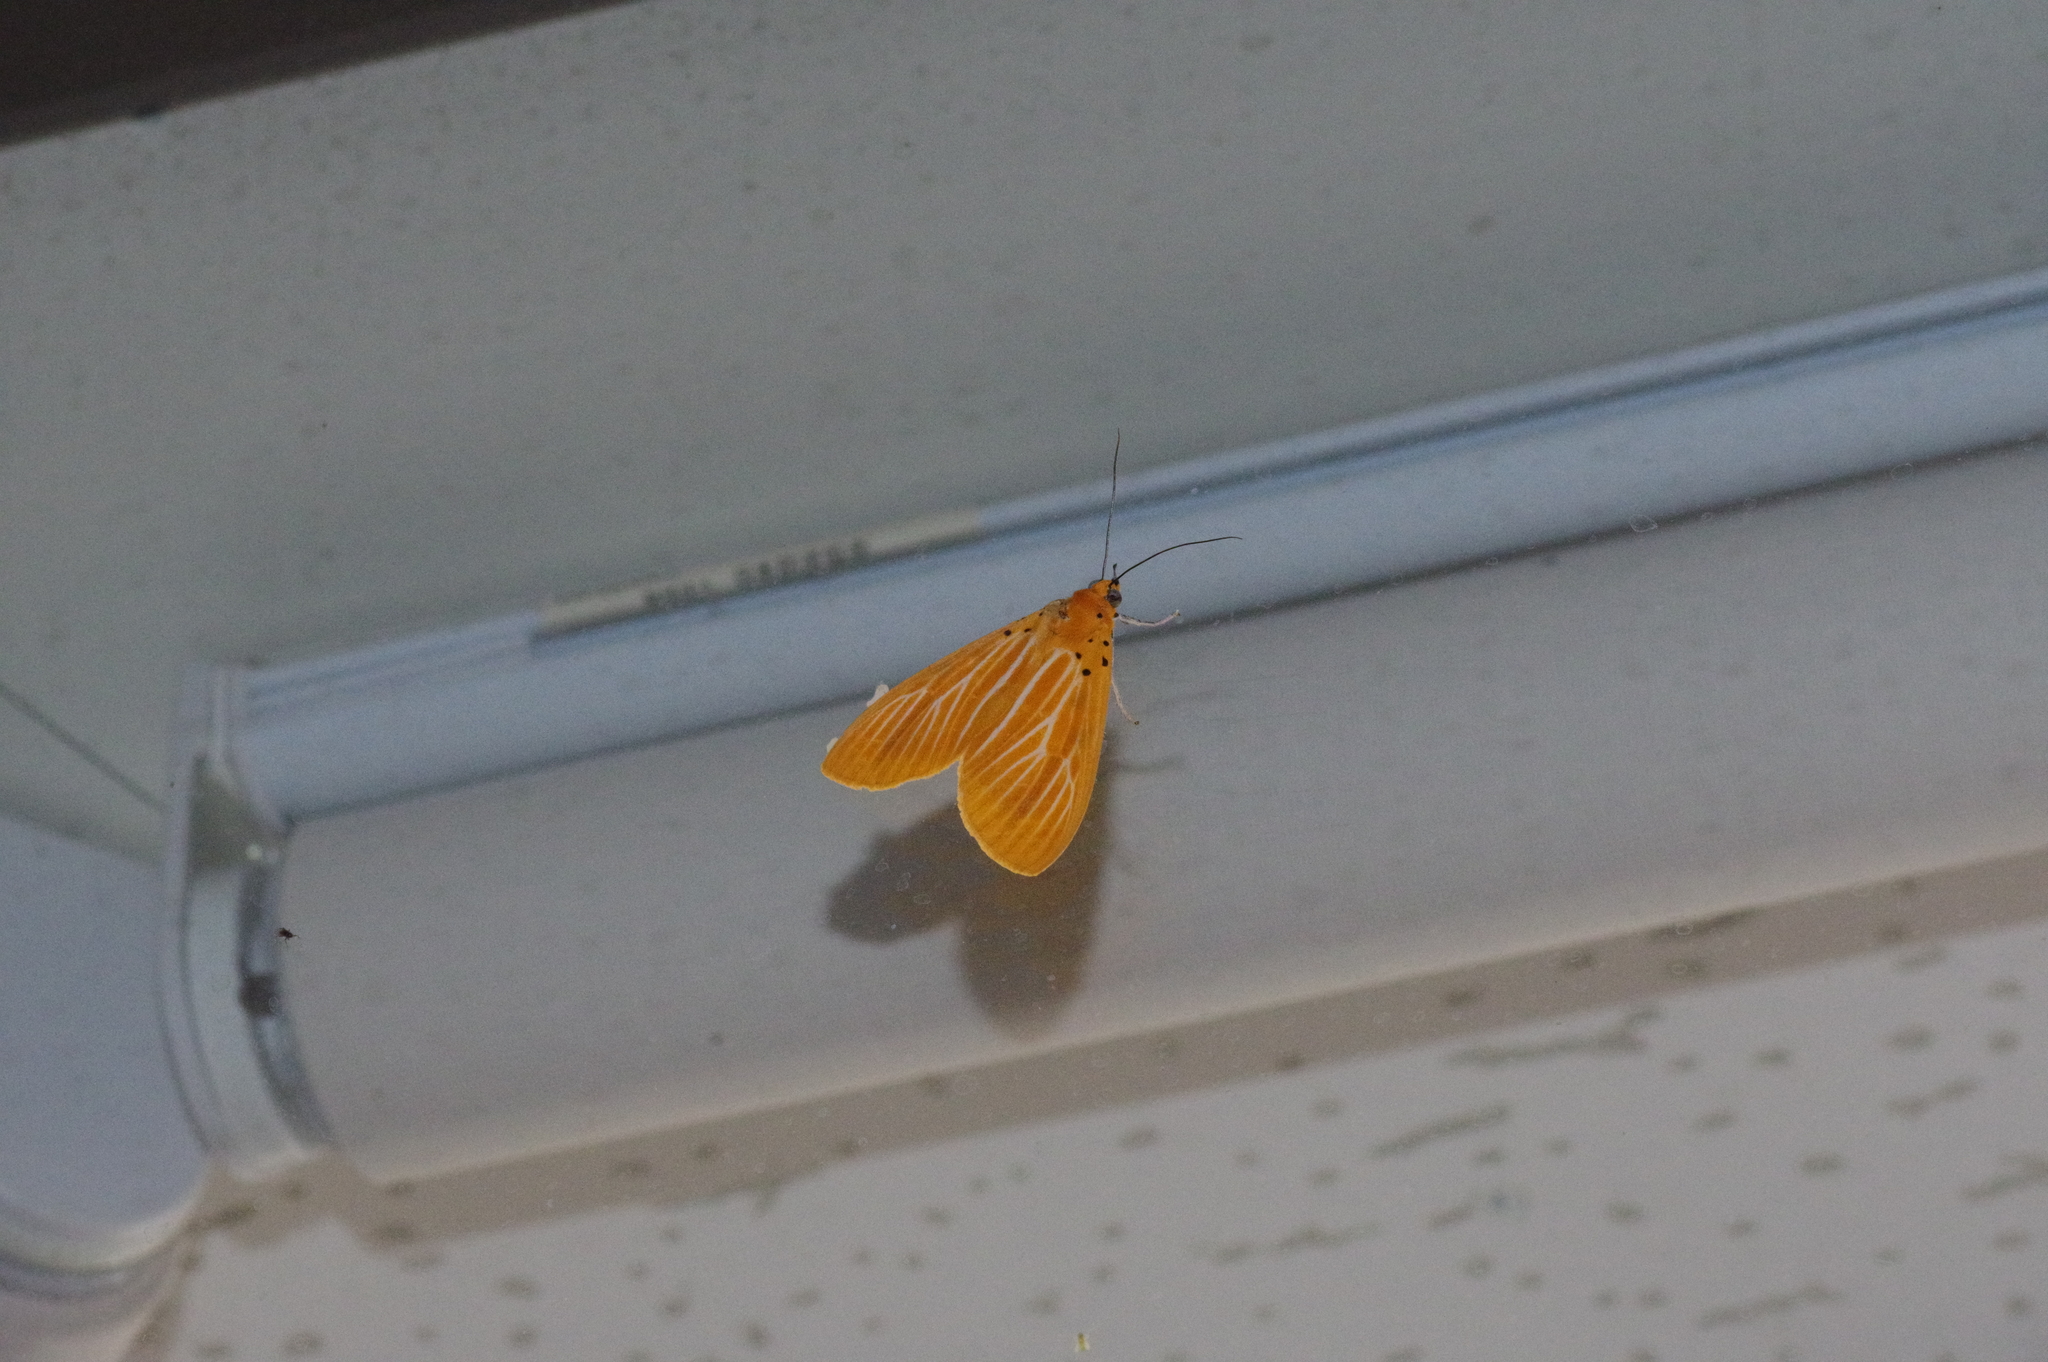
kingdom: Animalia
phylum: Arthropoda
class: Insecta
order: Lepidoptera
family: Erebidae
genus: Asota
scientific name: Asota egens
